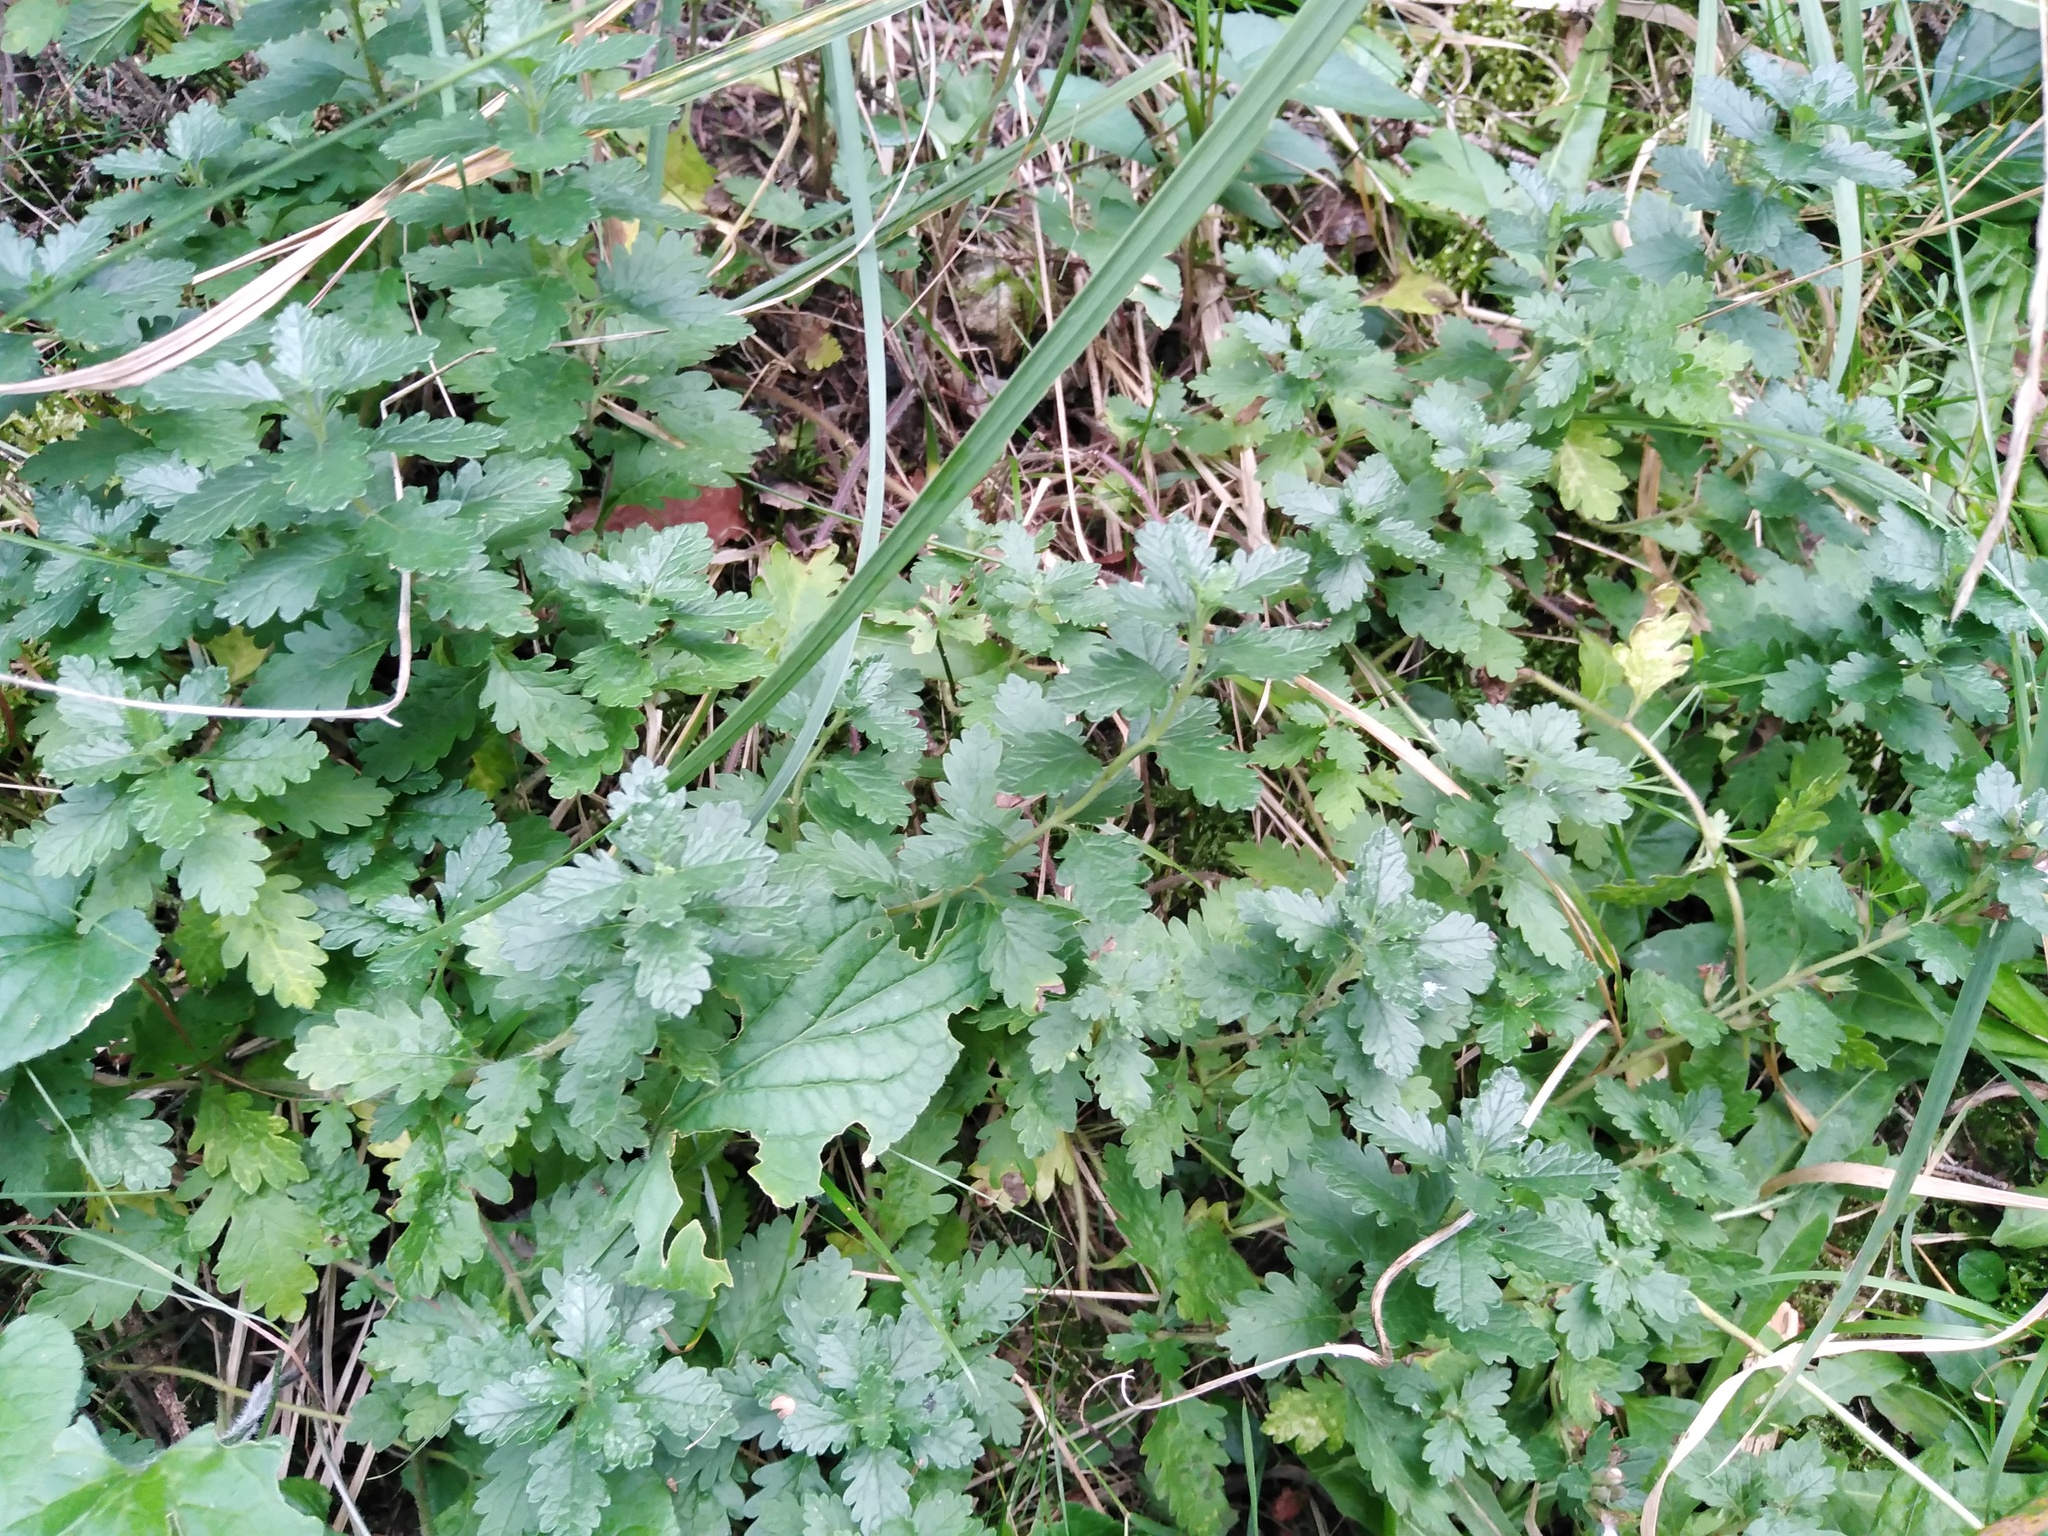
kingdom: Plantae
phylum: Tracheophyta
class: Magnoliopsida
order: Lamiales
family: Lamiaceae
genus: Teucrium
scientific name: Teucrium chamaedrys
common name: Wall germander
